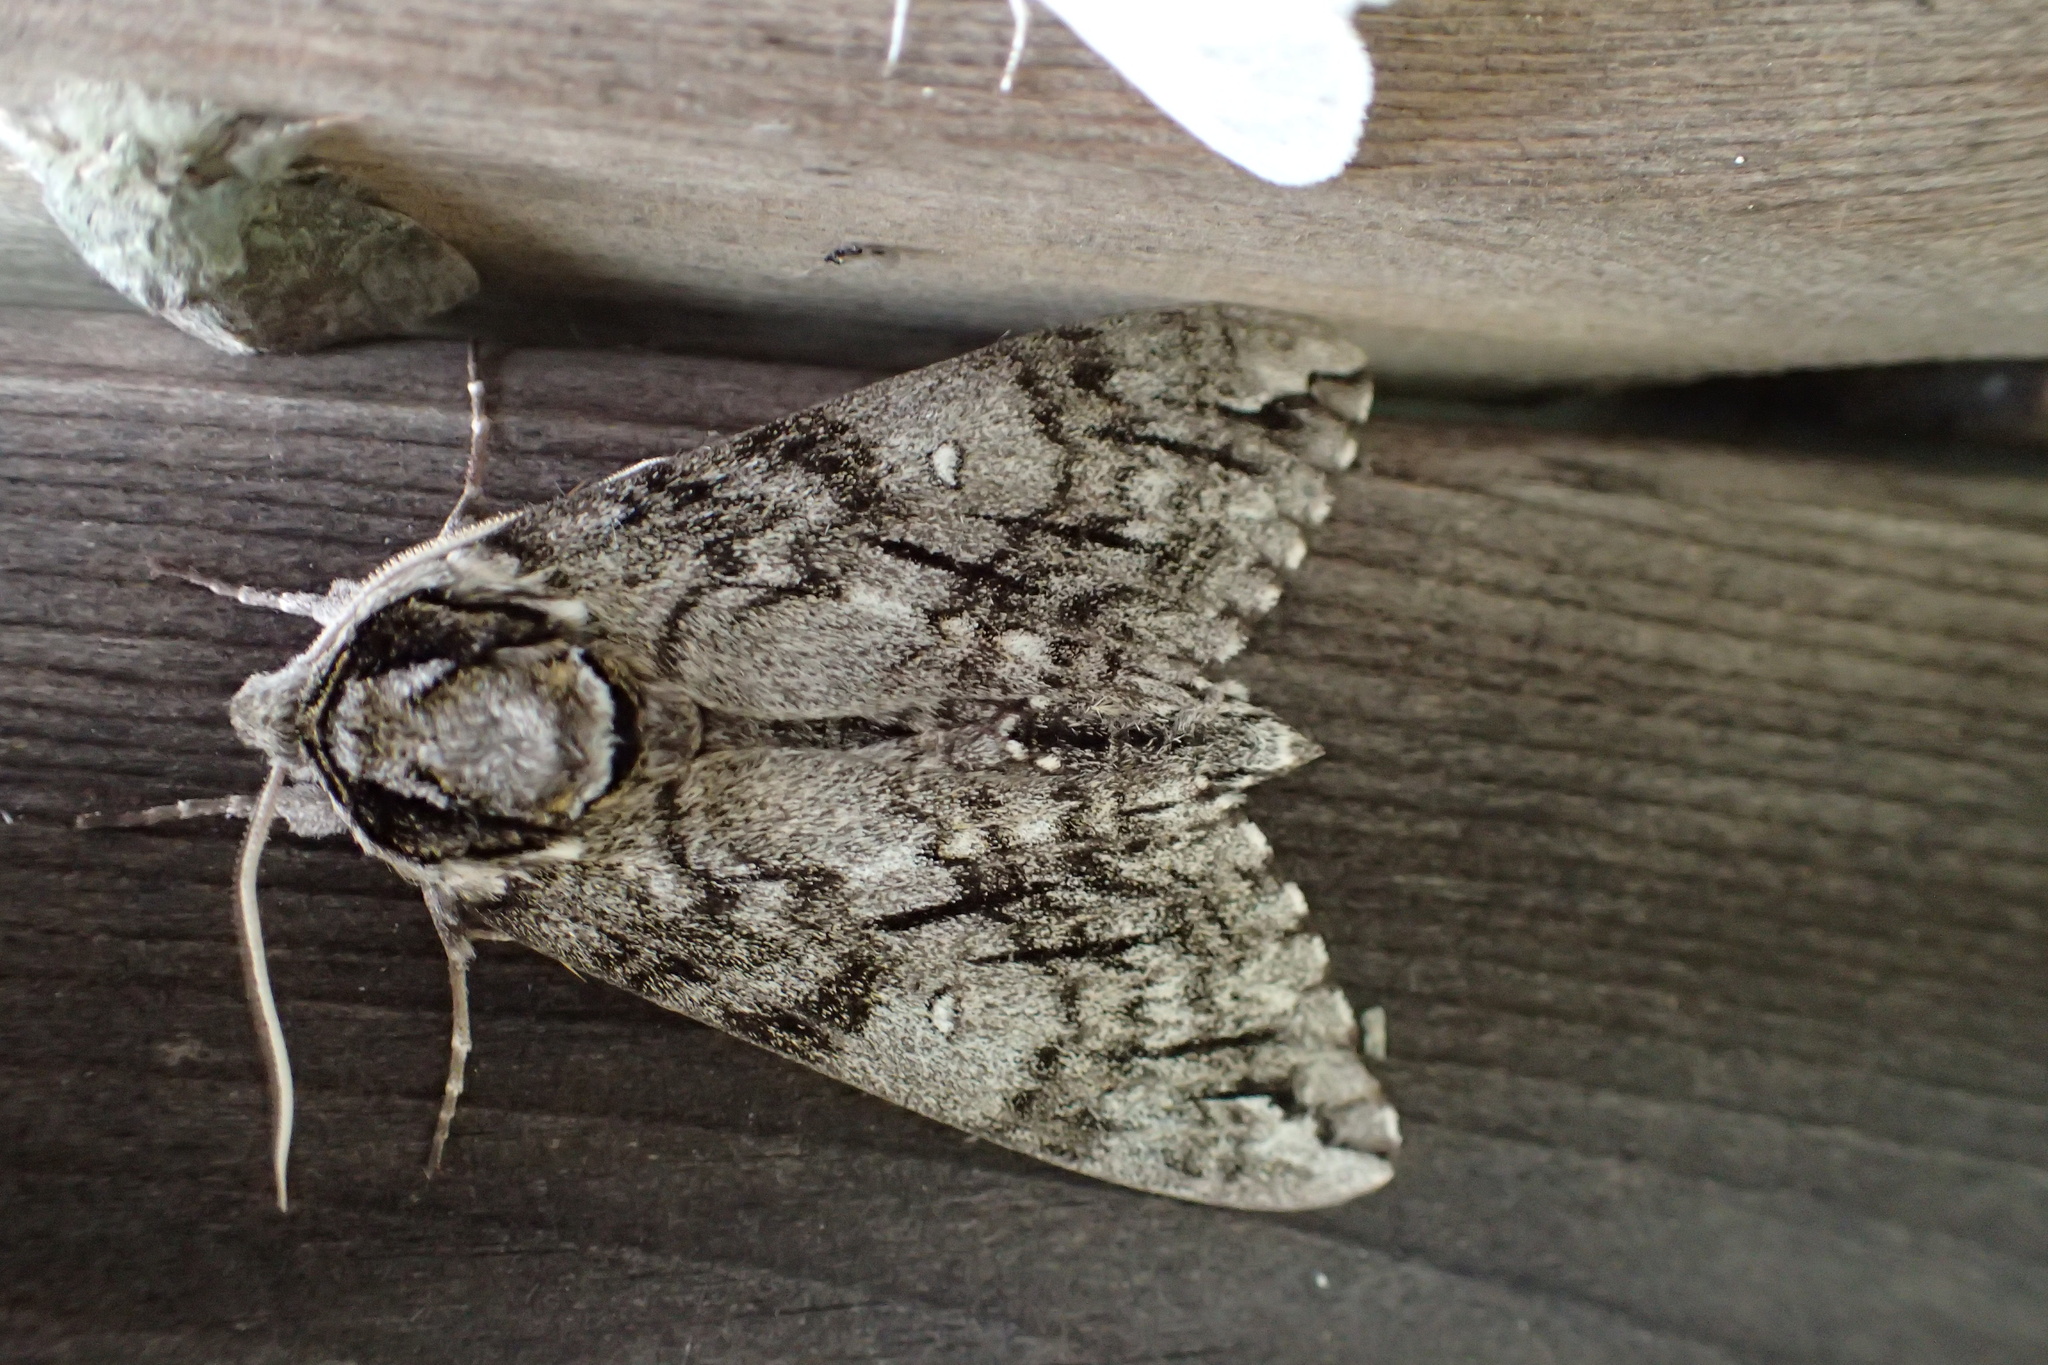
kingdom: Animalia
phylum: Arthropoda
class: Insecta
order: Lepidoptera
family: Sphingidae
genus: Ceratomia
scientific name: Ceratomia undulosa
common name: Waved sphinx
